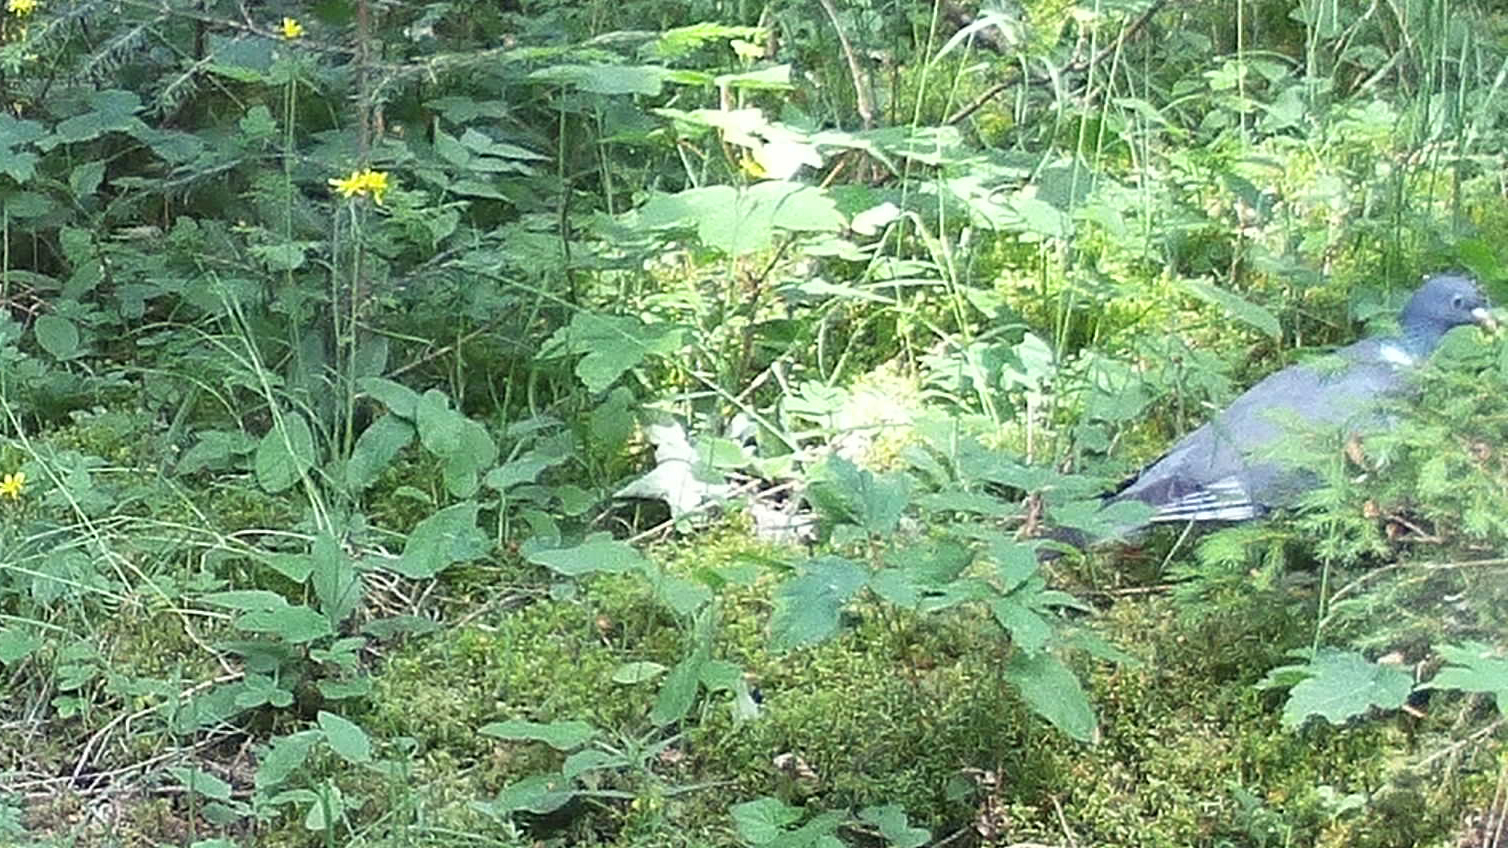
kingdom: Animalia
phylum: Chordata
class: Aves
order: Columbiformes
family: Columbidae
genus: Columba
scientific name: Columba palumbus
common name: Common wood pigeon
